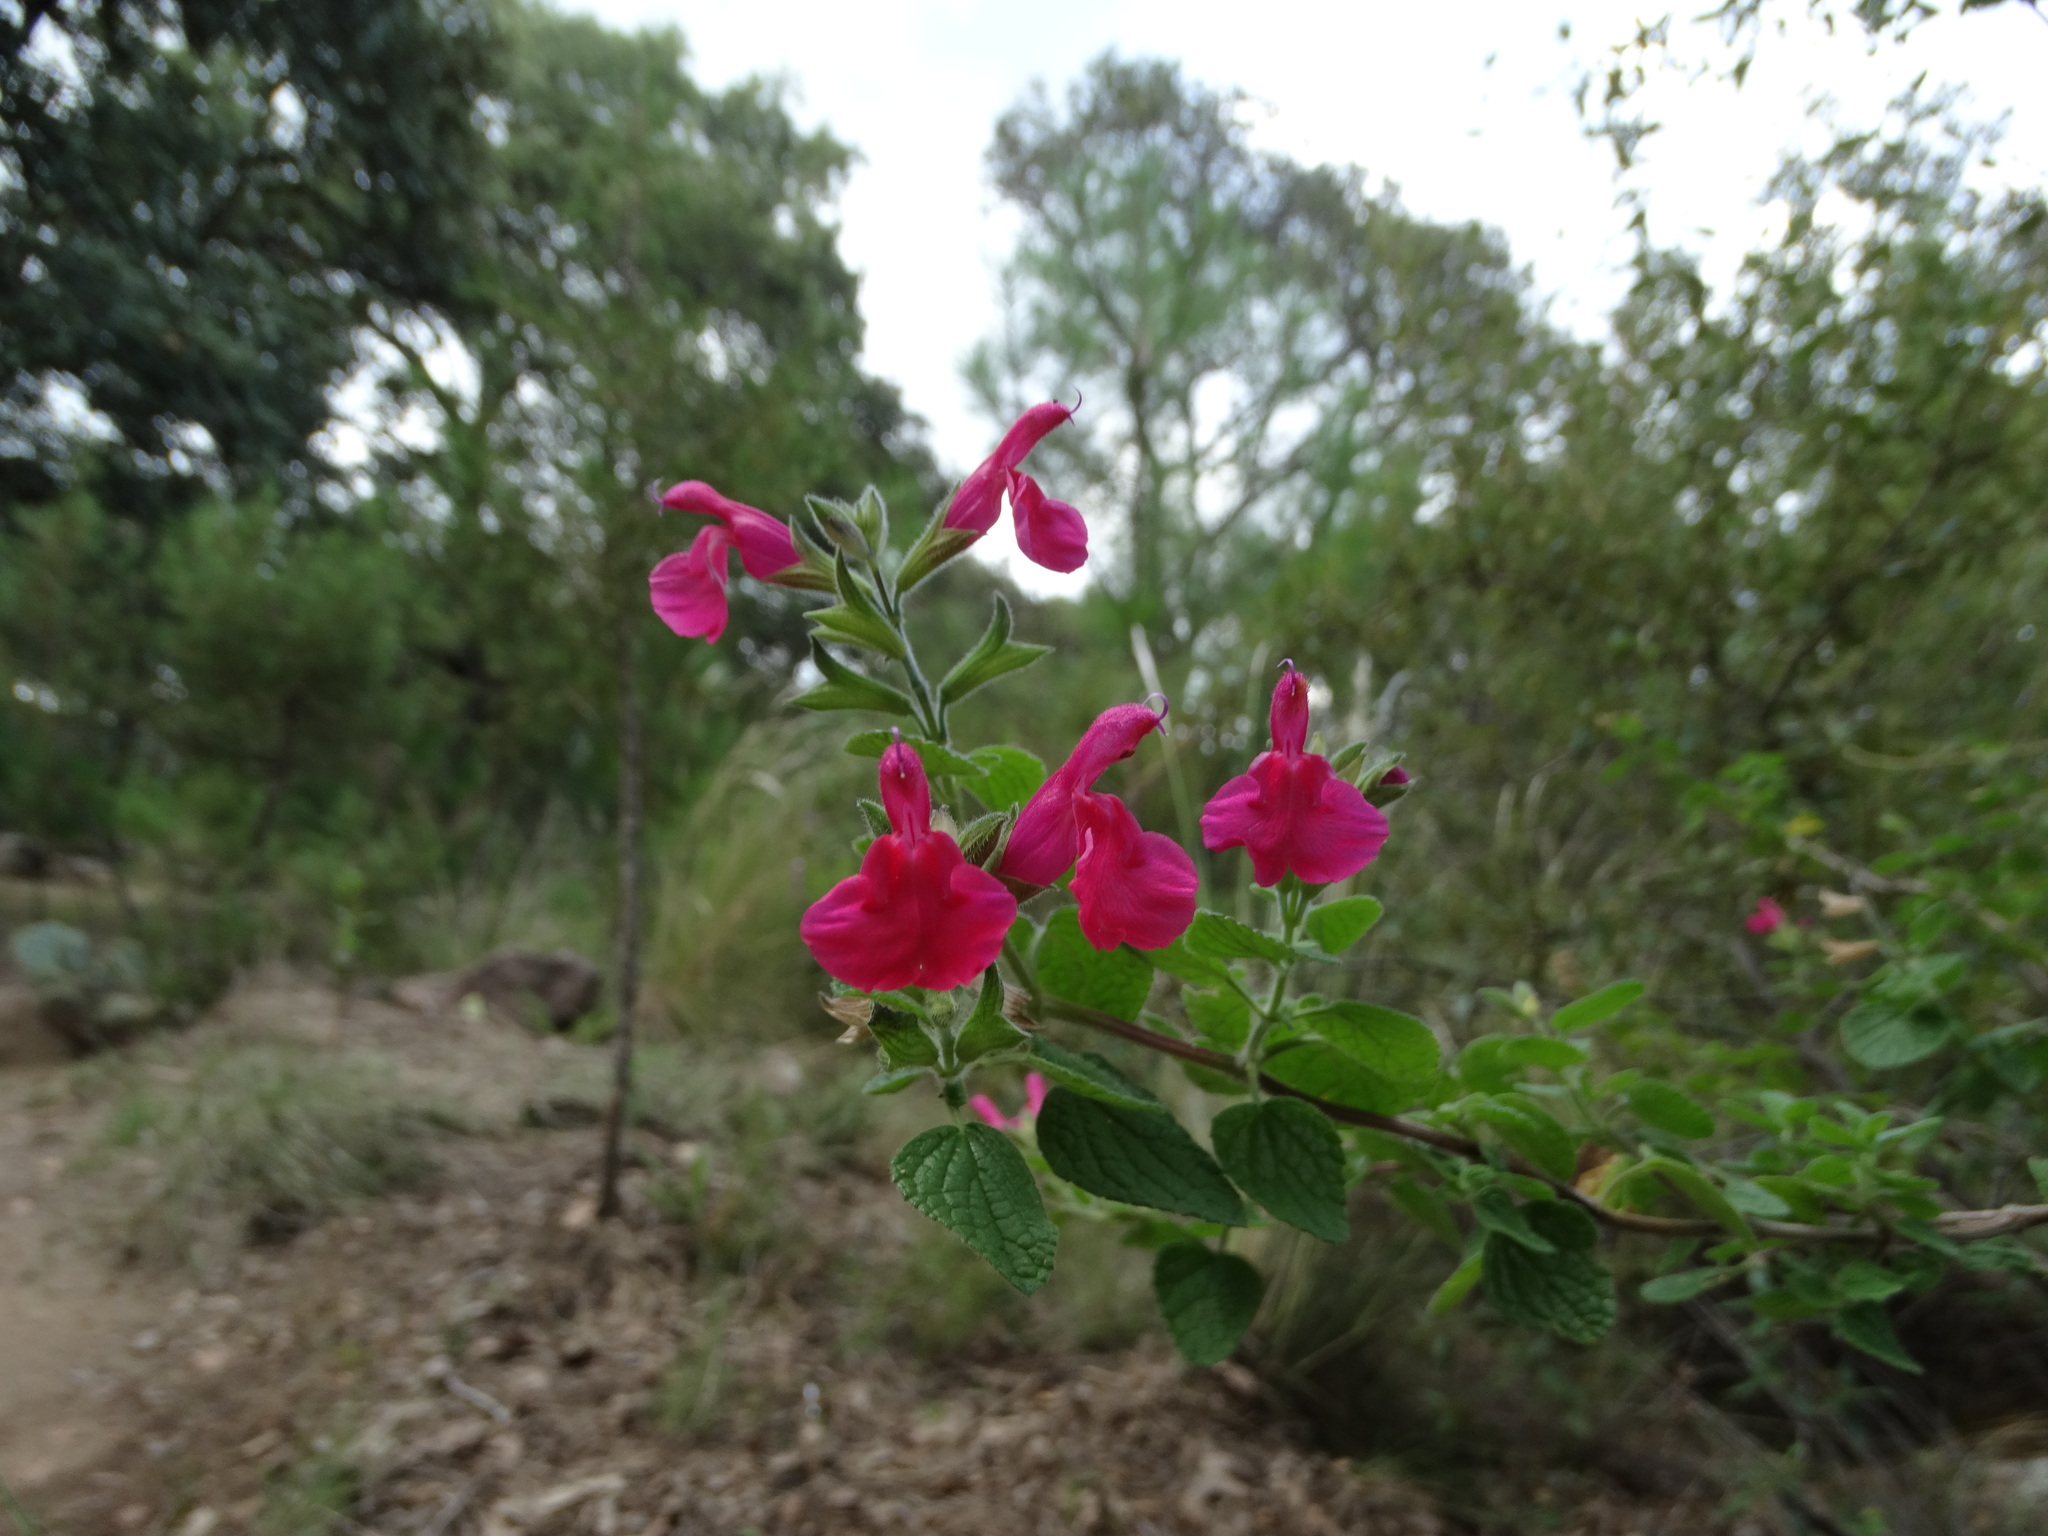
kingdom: Plantae
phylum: Tracheophyta
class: Magnoliopsida
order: Lamiales
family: Lamiaceae
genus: Salvia
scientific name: Salvia microphylla
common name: Baby sage
